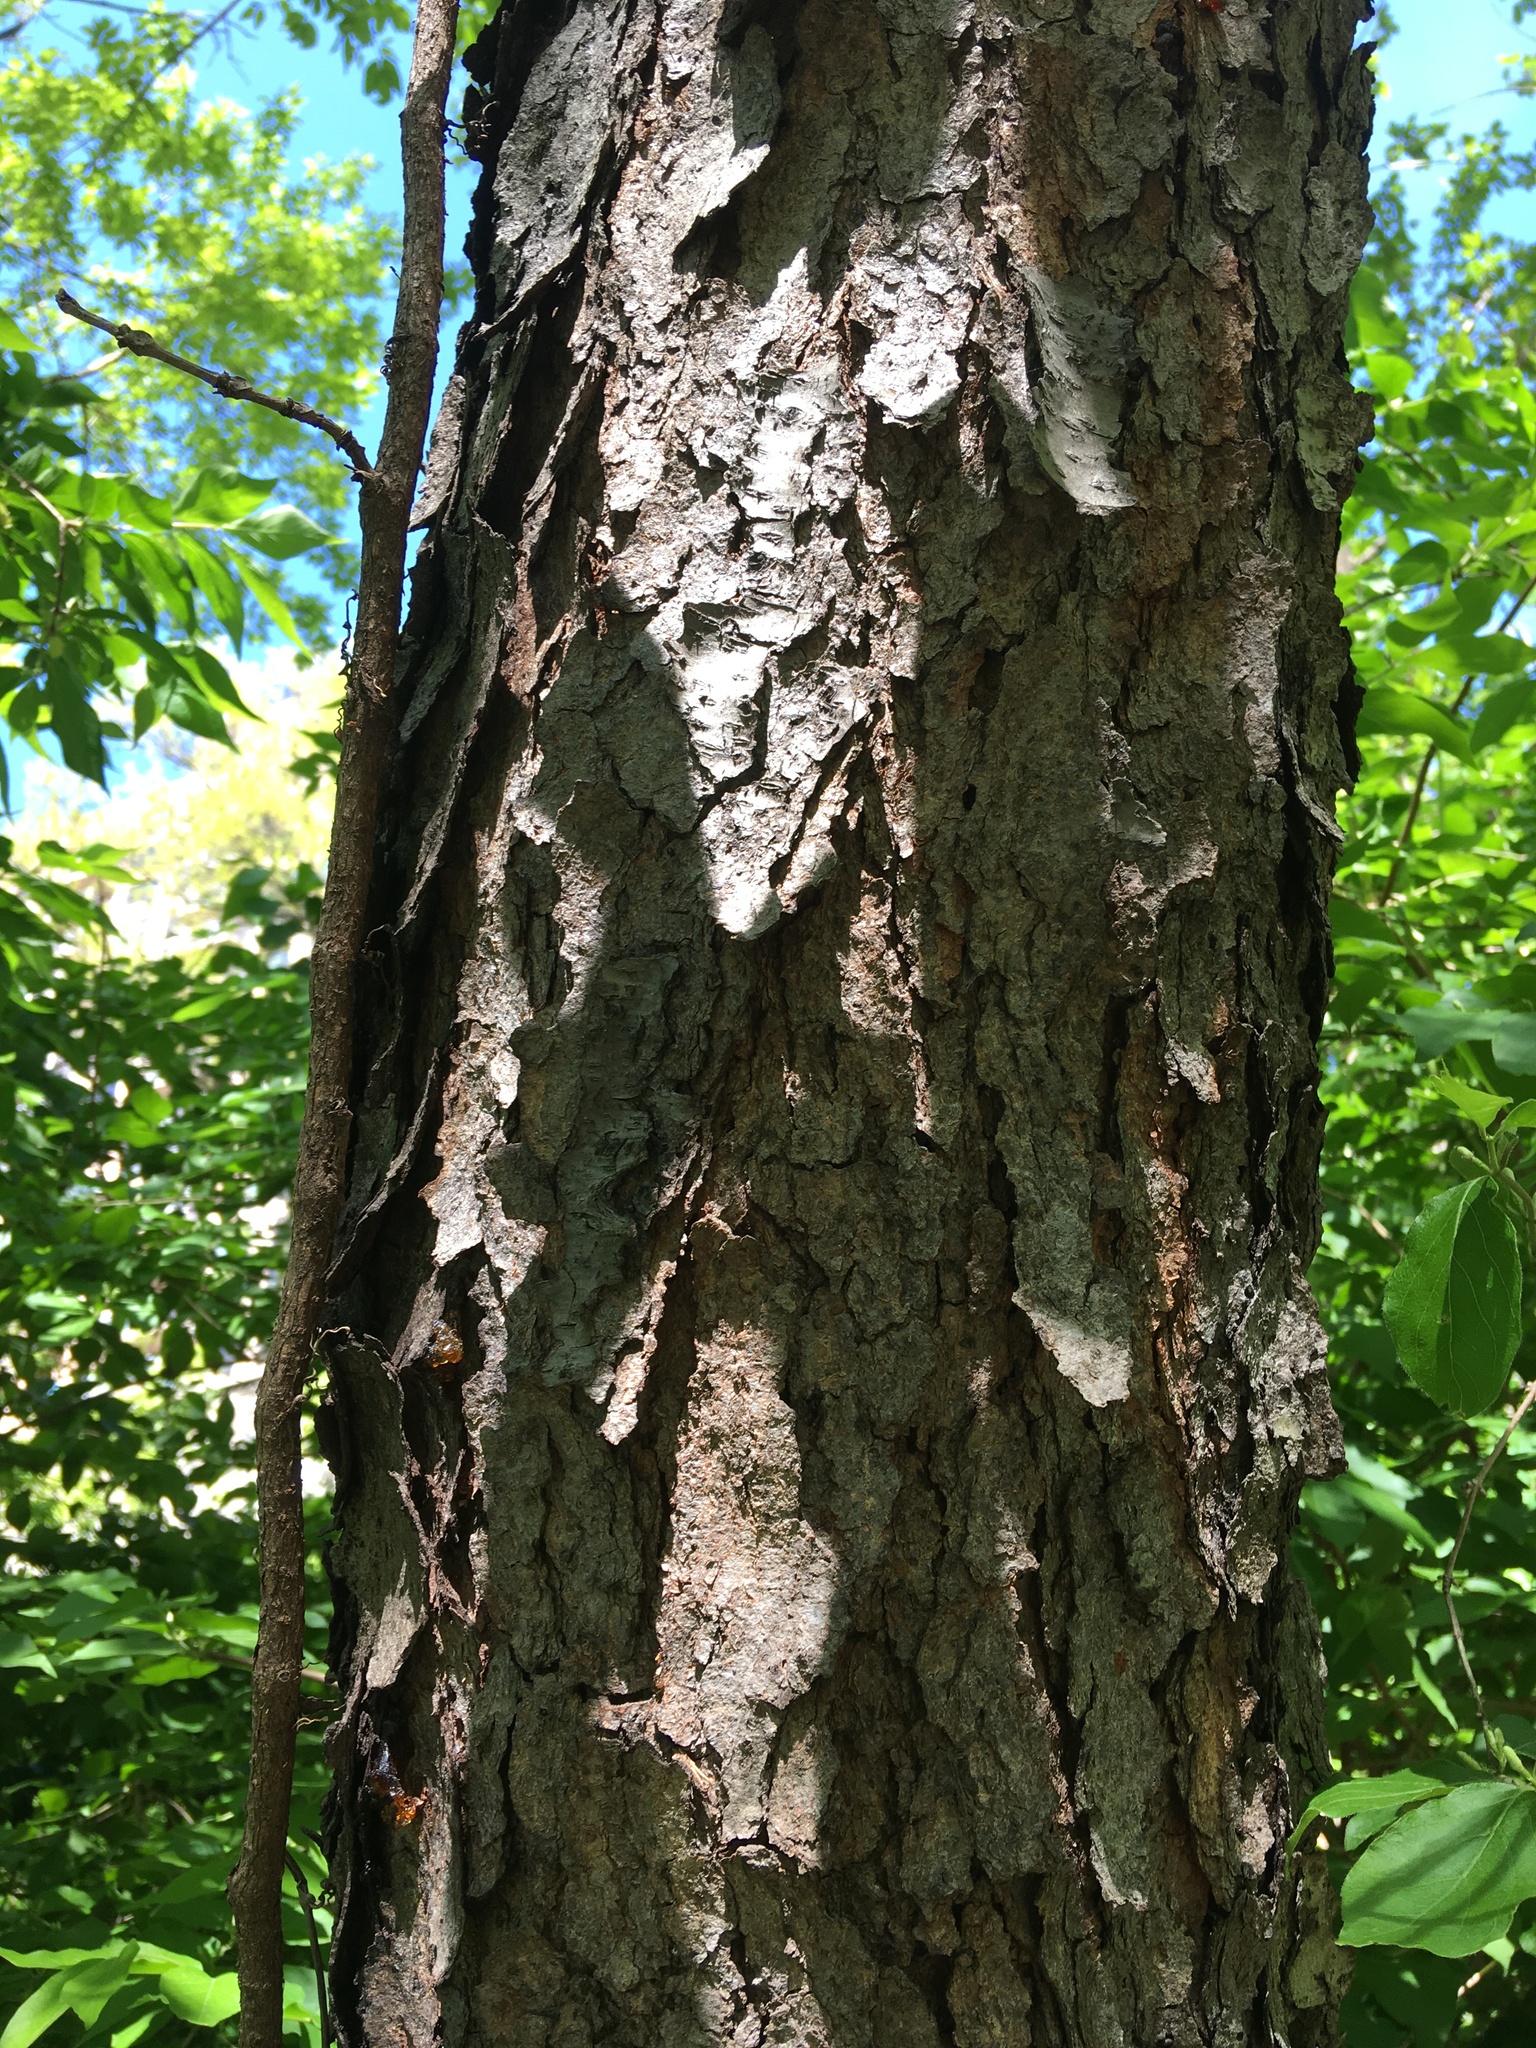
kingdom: Plantae
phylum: Tracheophyta
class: Magnoliopsida
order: Rosales
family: Rosaceae
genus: Prunus
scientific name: Prunus serotina
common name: Black cherry
